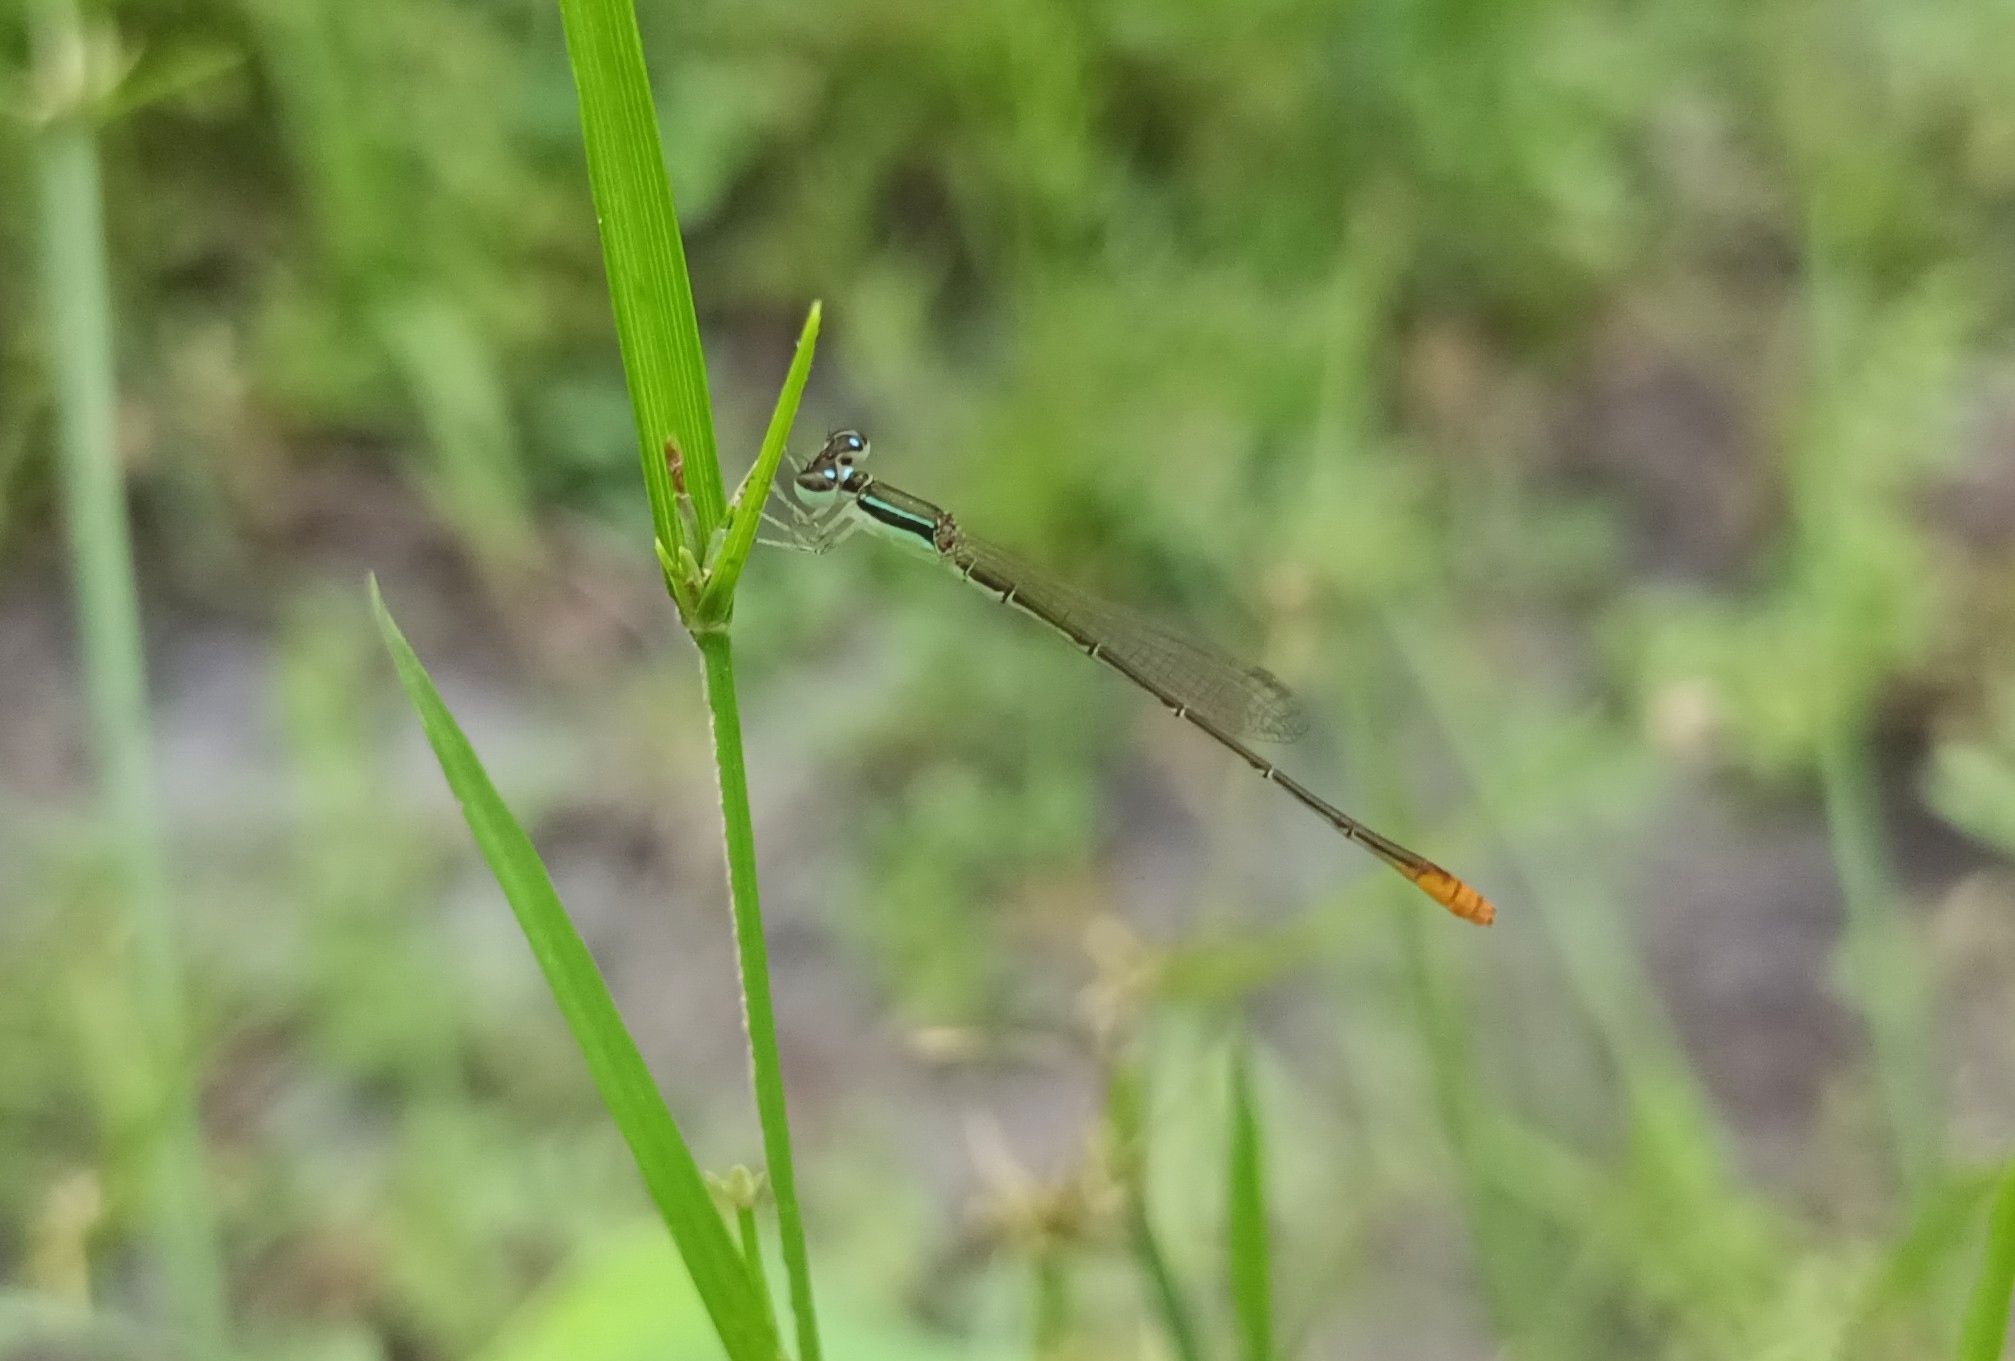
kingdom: Animalia
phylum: Arthropoda
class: Insecta
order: Odonata
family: Coenagrionidae
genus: Agriocnemis
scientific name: Agriocnemis pygmaea
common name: Pygmy wisp
